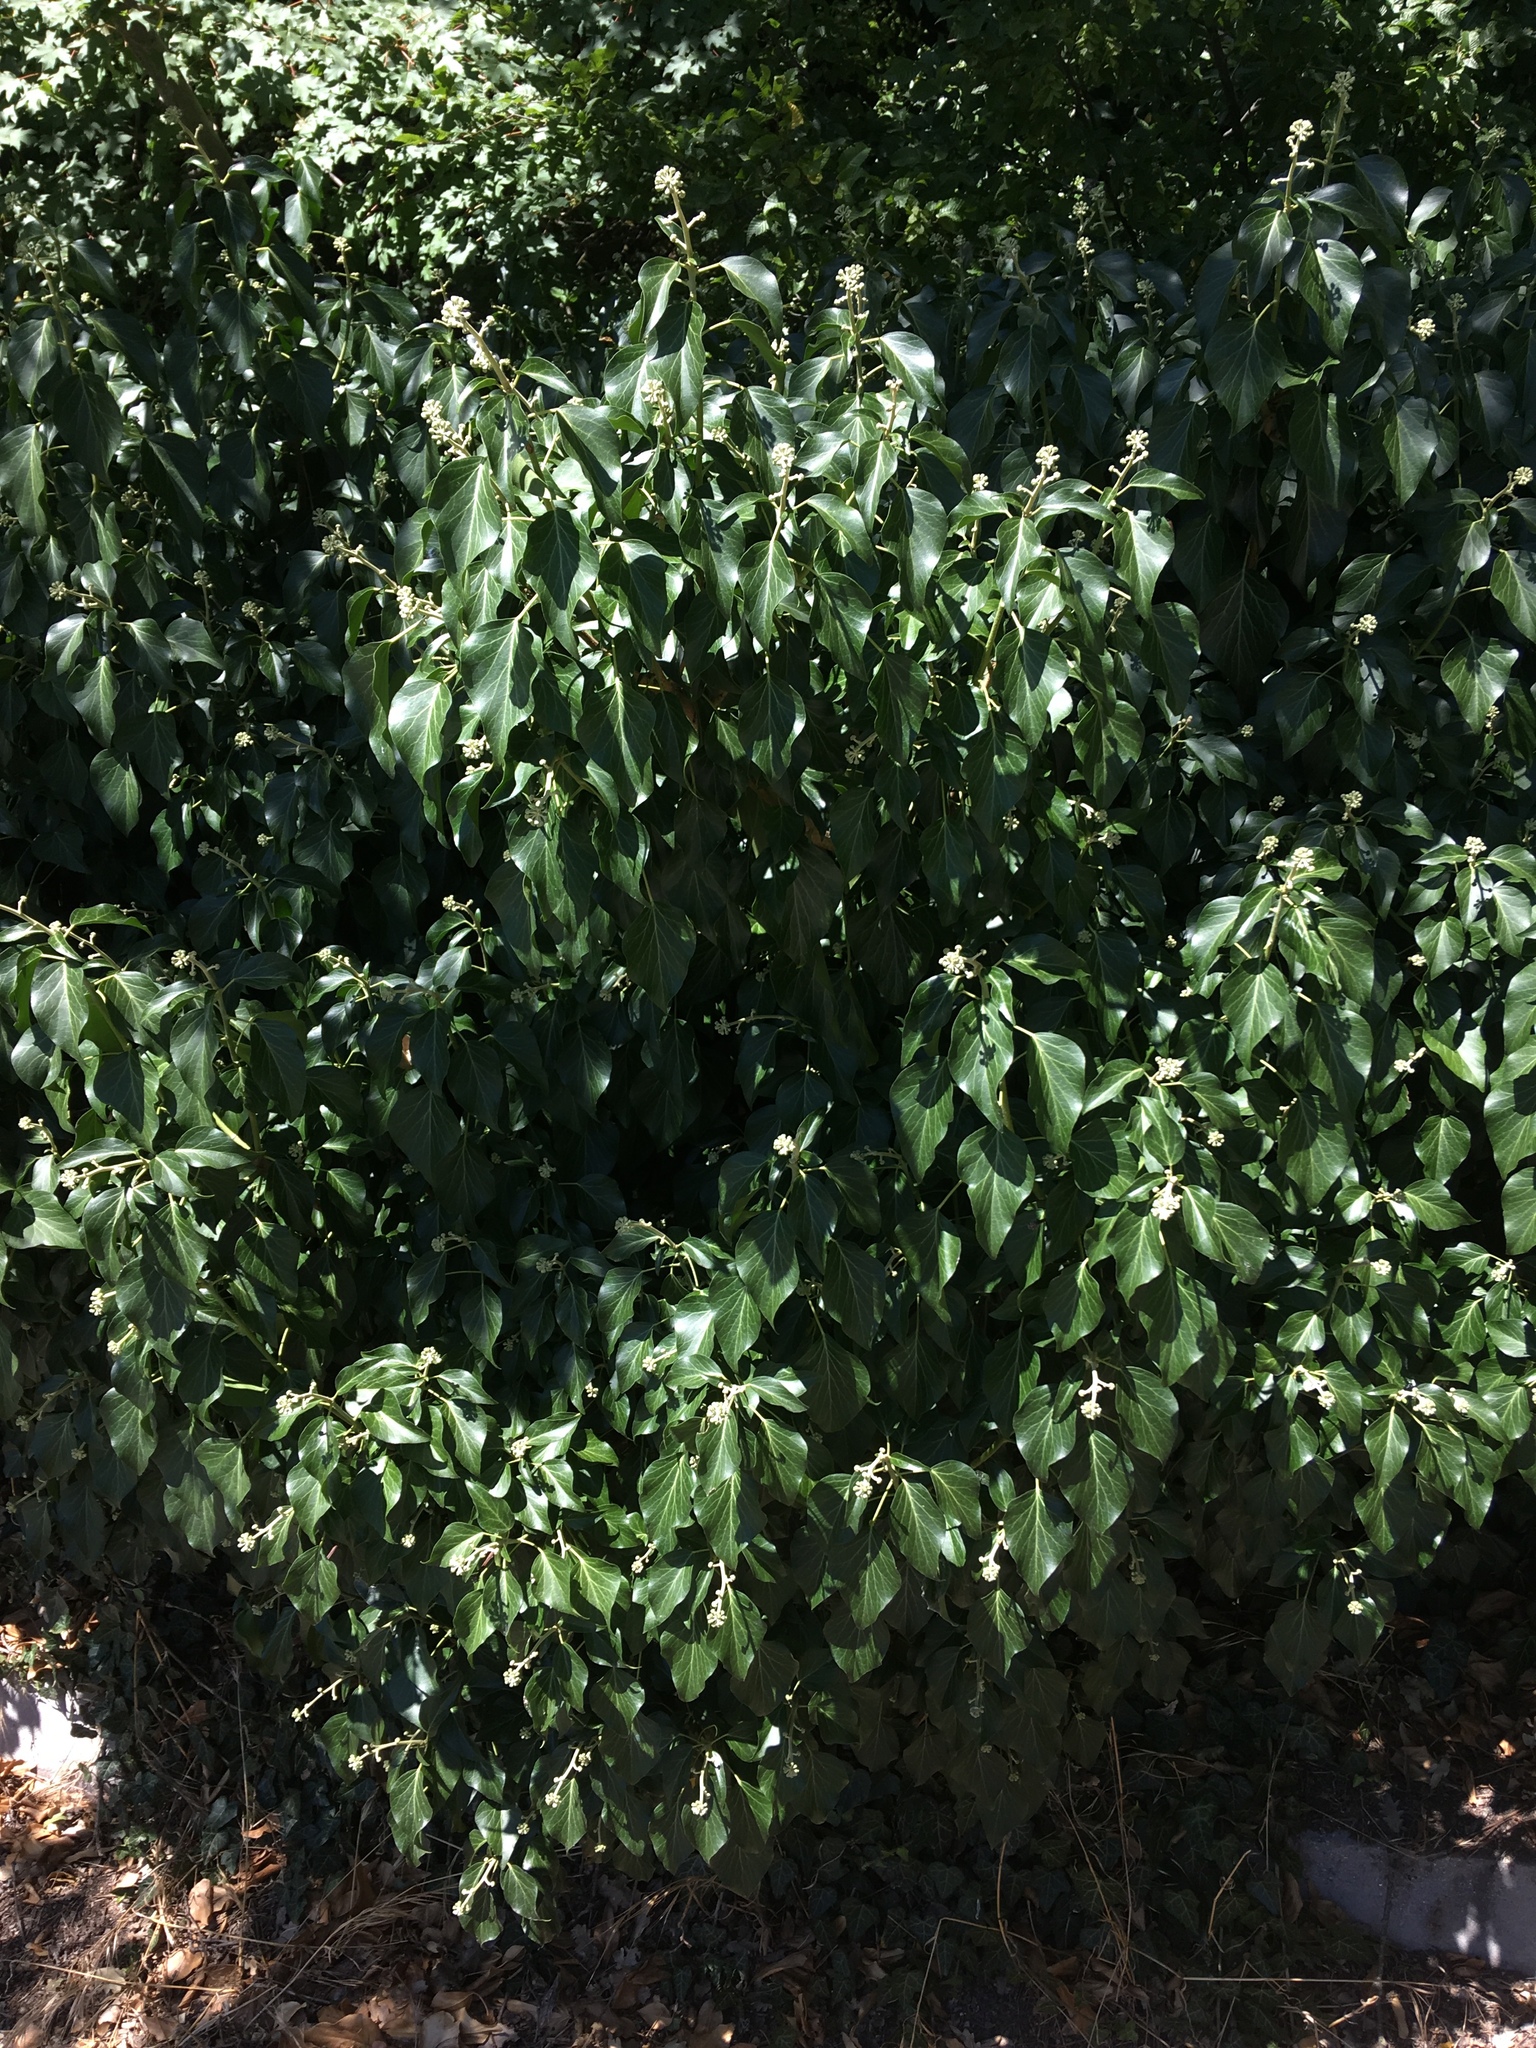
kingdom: Plantae
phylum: Tracheophyta
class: Magnoliopsida
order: Apiales
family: Araliaceae
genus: Hedera
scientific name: Hedera helix
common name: Ivy
